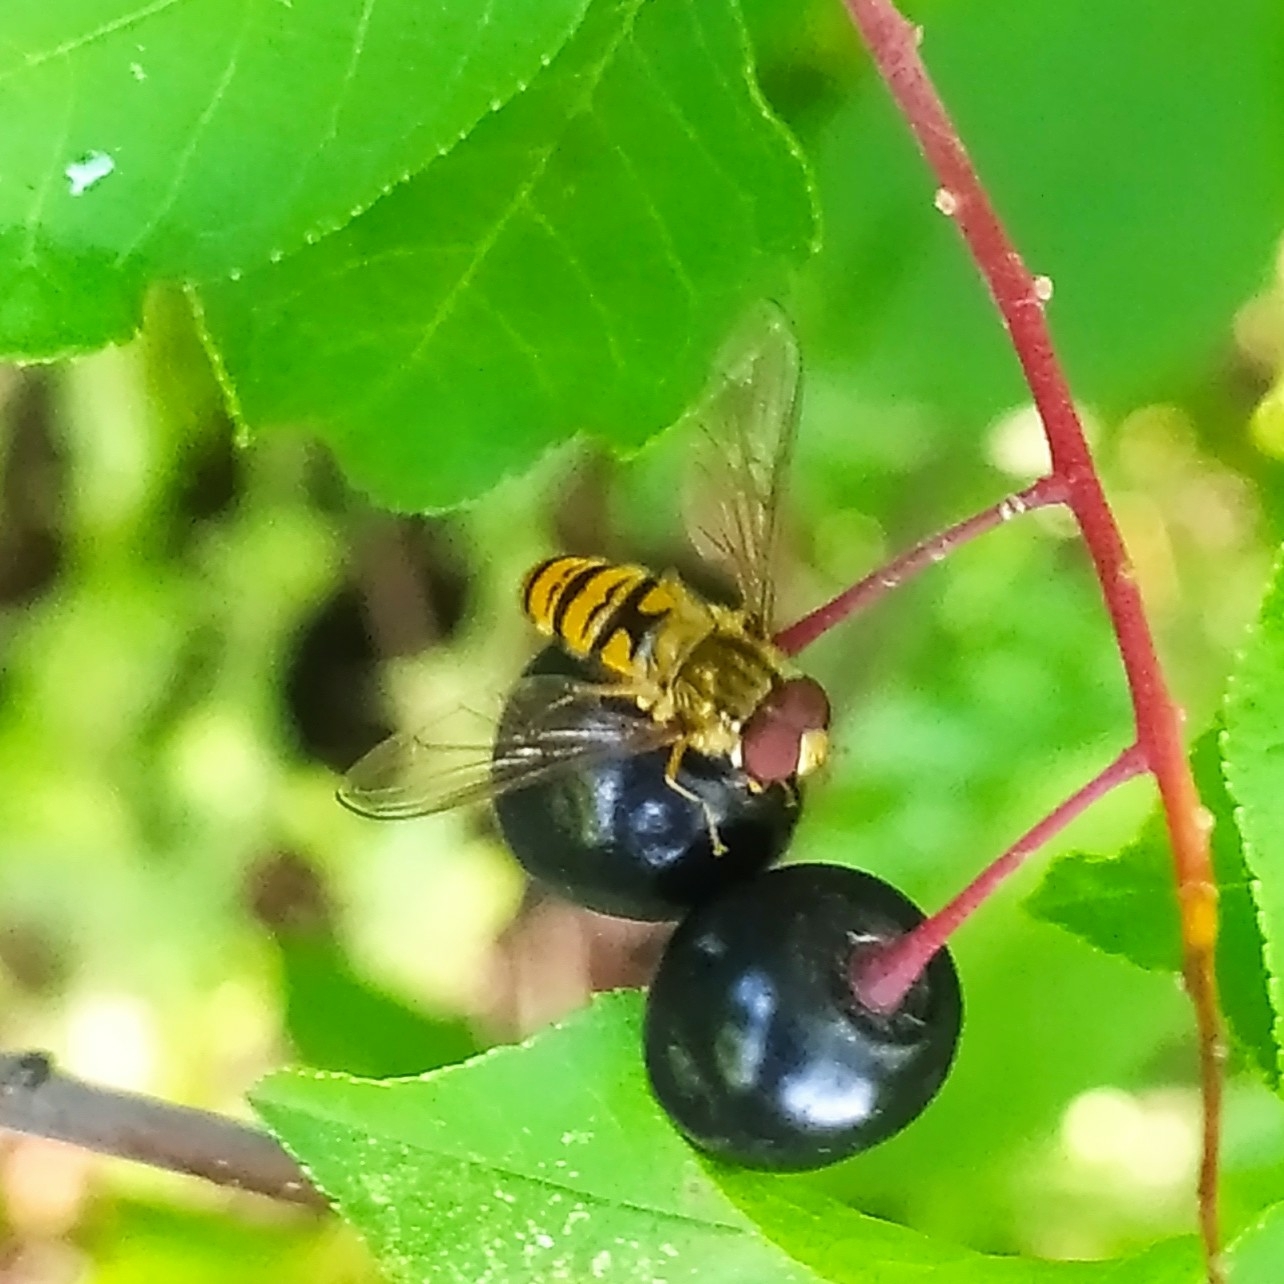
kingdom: Animalia
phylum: Arthropoda
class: Insecta
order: Diptera
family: Syrphidae
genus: Episyrphus
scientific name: Episyrphus balteatus
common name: Marmalade hoverfly
